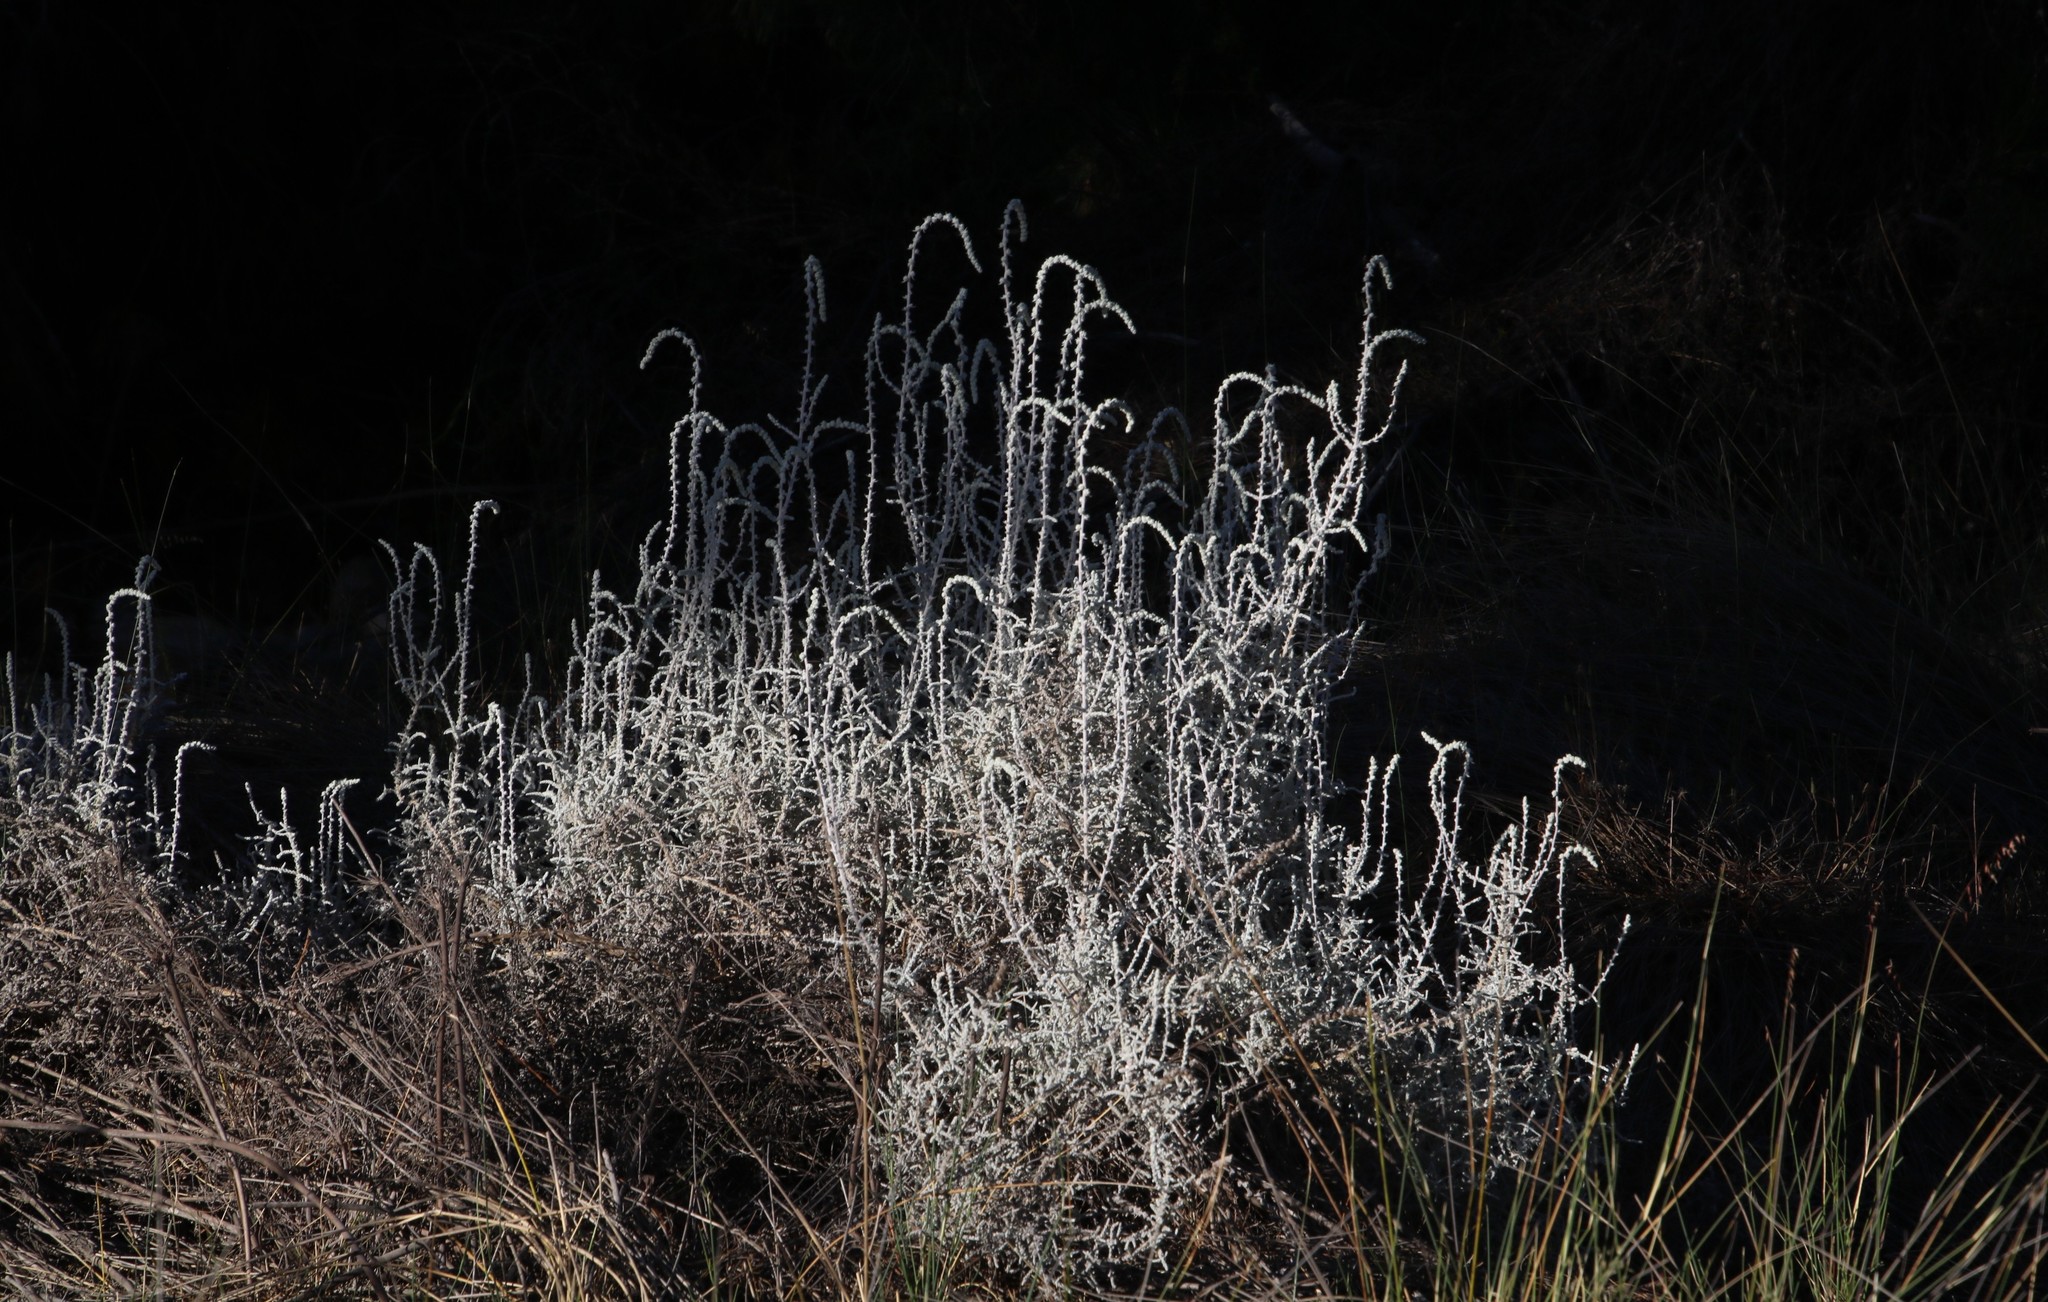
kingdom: Plantae
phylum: Tracheophyta
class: Magnoliopsida
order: Asterales
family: Asteraceae
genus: Seriphium
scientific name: Seriphium plumosum
